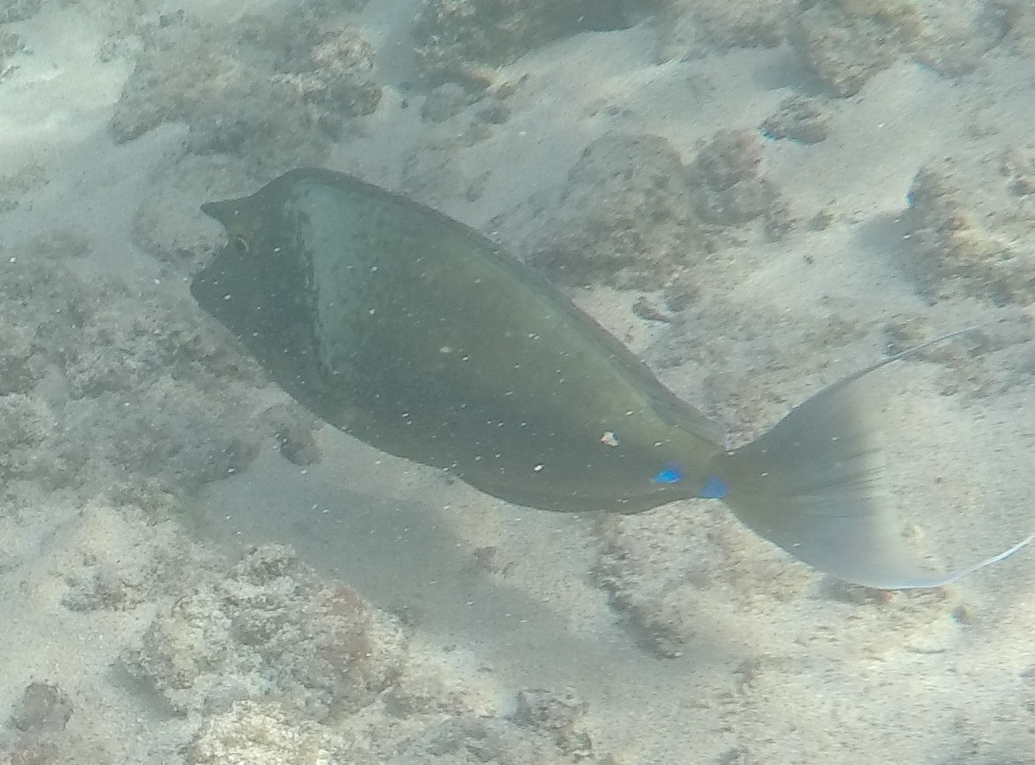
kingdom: Animalia
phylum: Chordata
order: Perciformes
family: Acanthuridae
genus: Naso
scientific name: Naso unicornis
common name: Bluespine unicornfish
